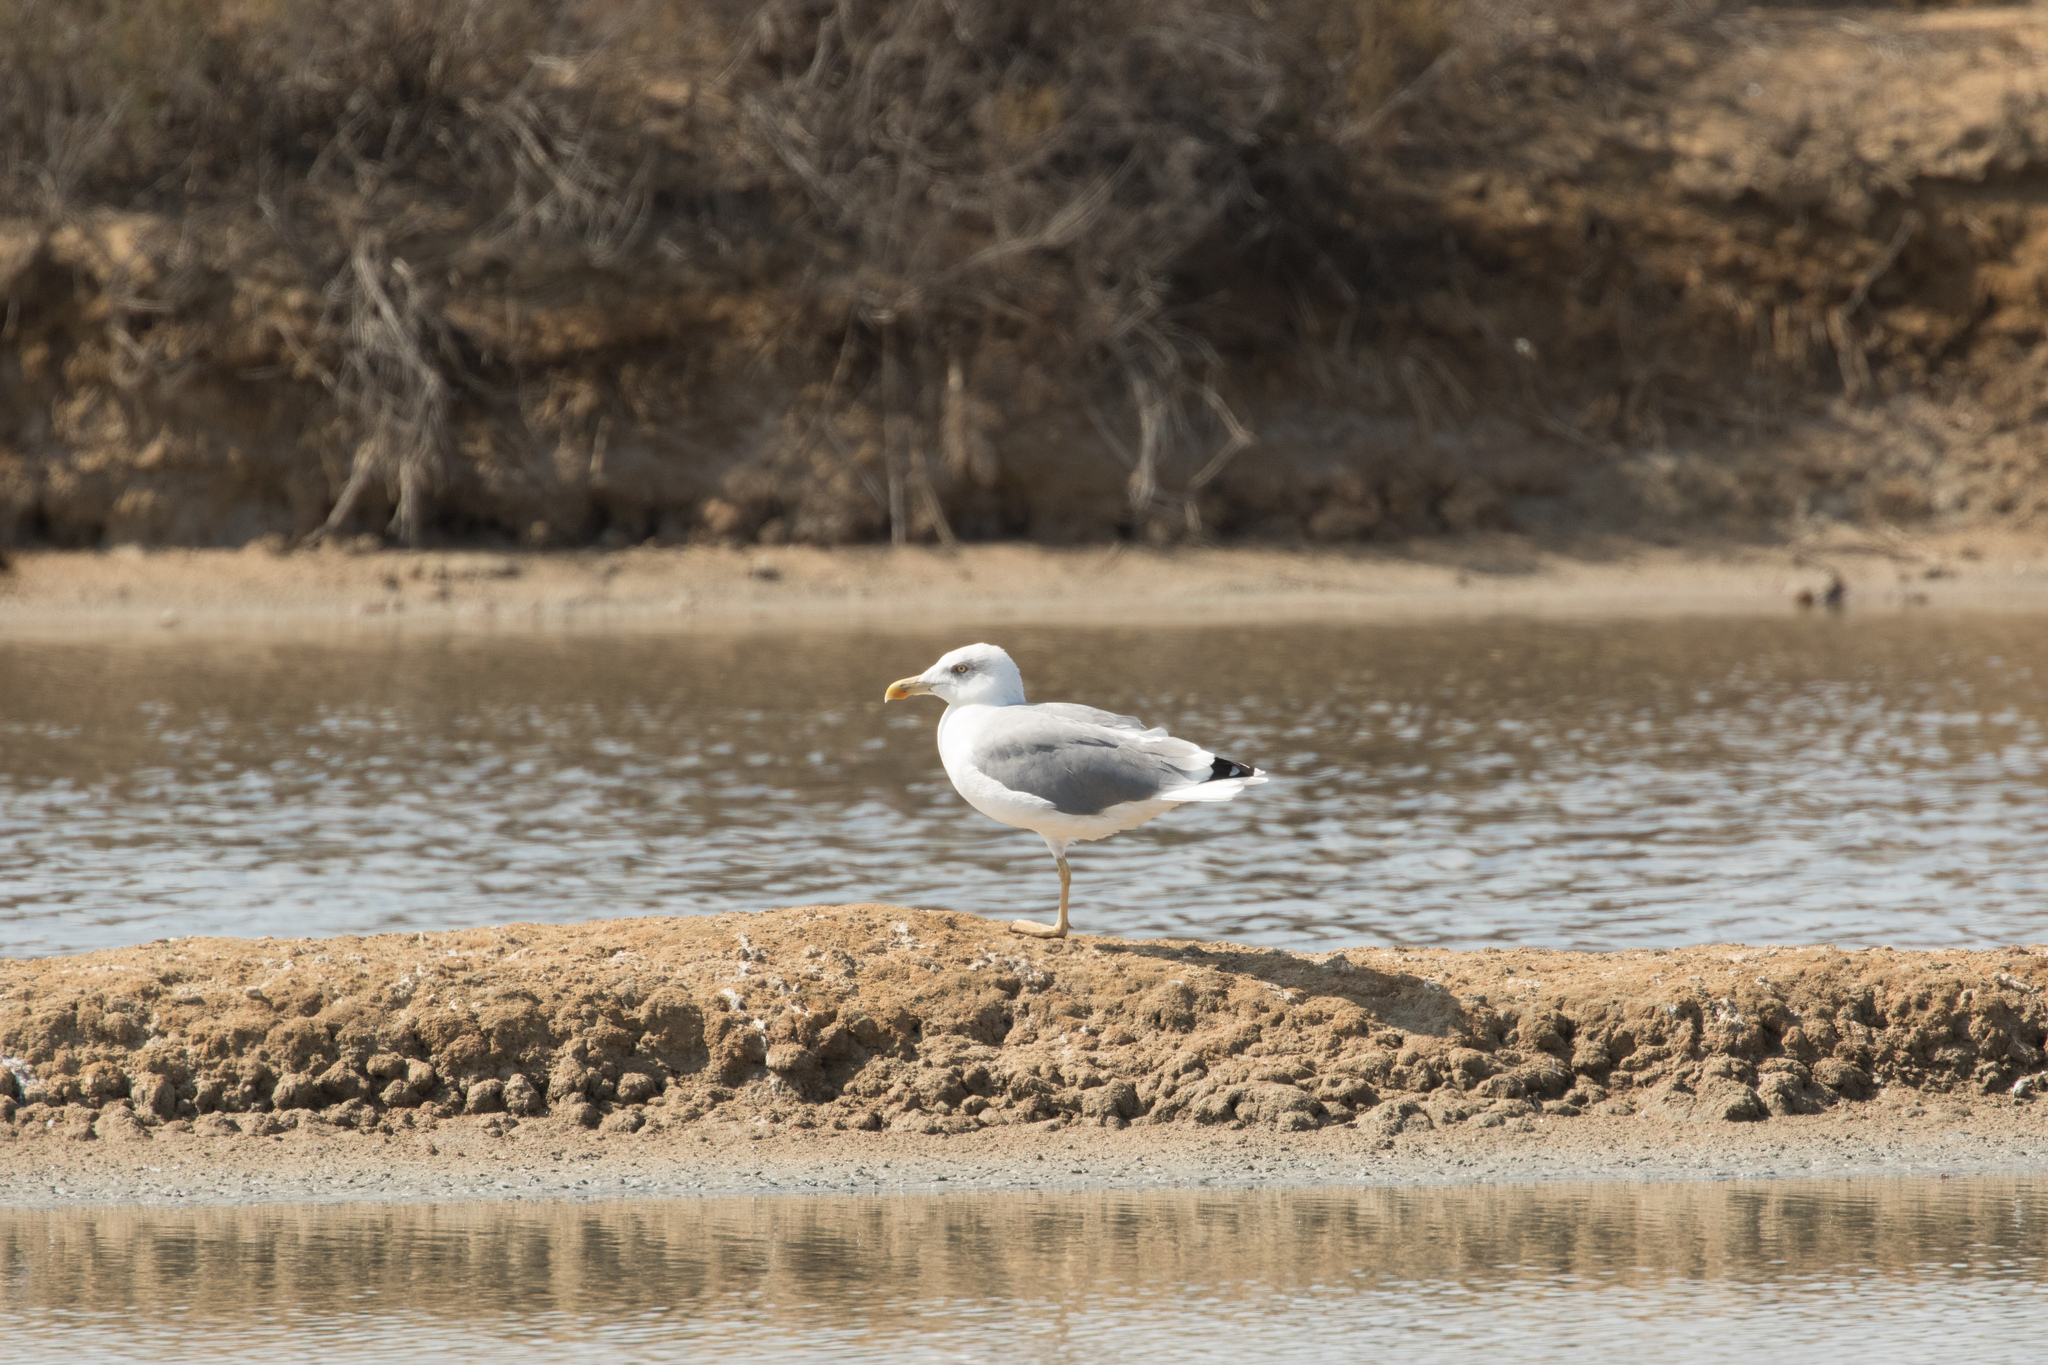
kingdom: Animalia
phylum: Chordata
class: Aves
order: Charadriiformes
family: Laridae
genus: Larus
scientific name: Larus michahellis
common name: Yellow-legged gull
